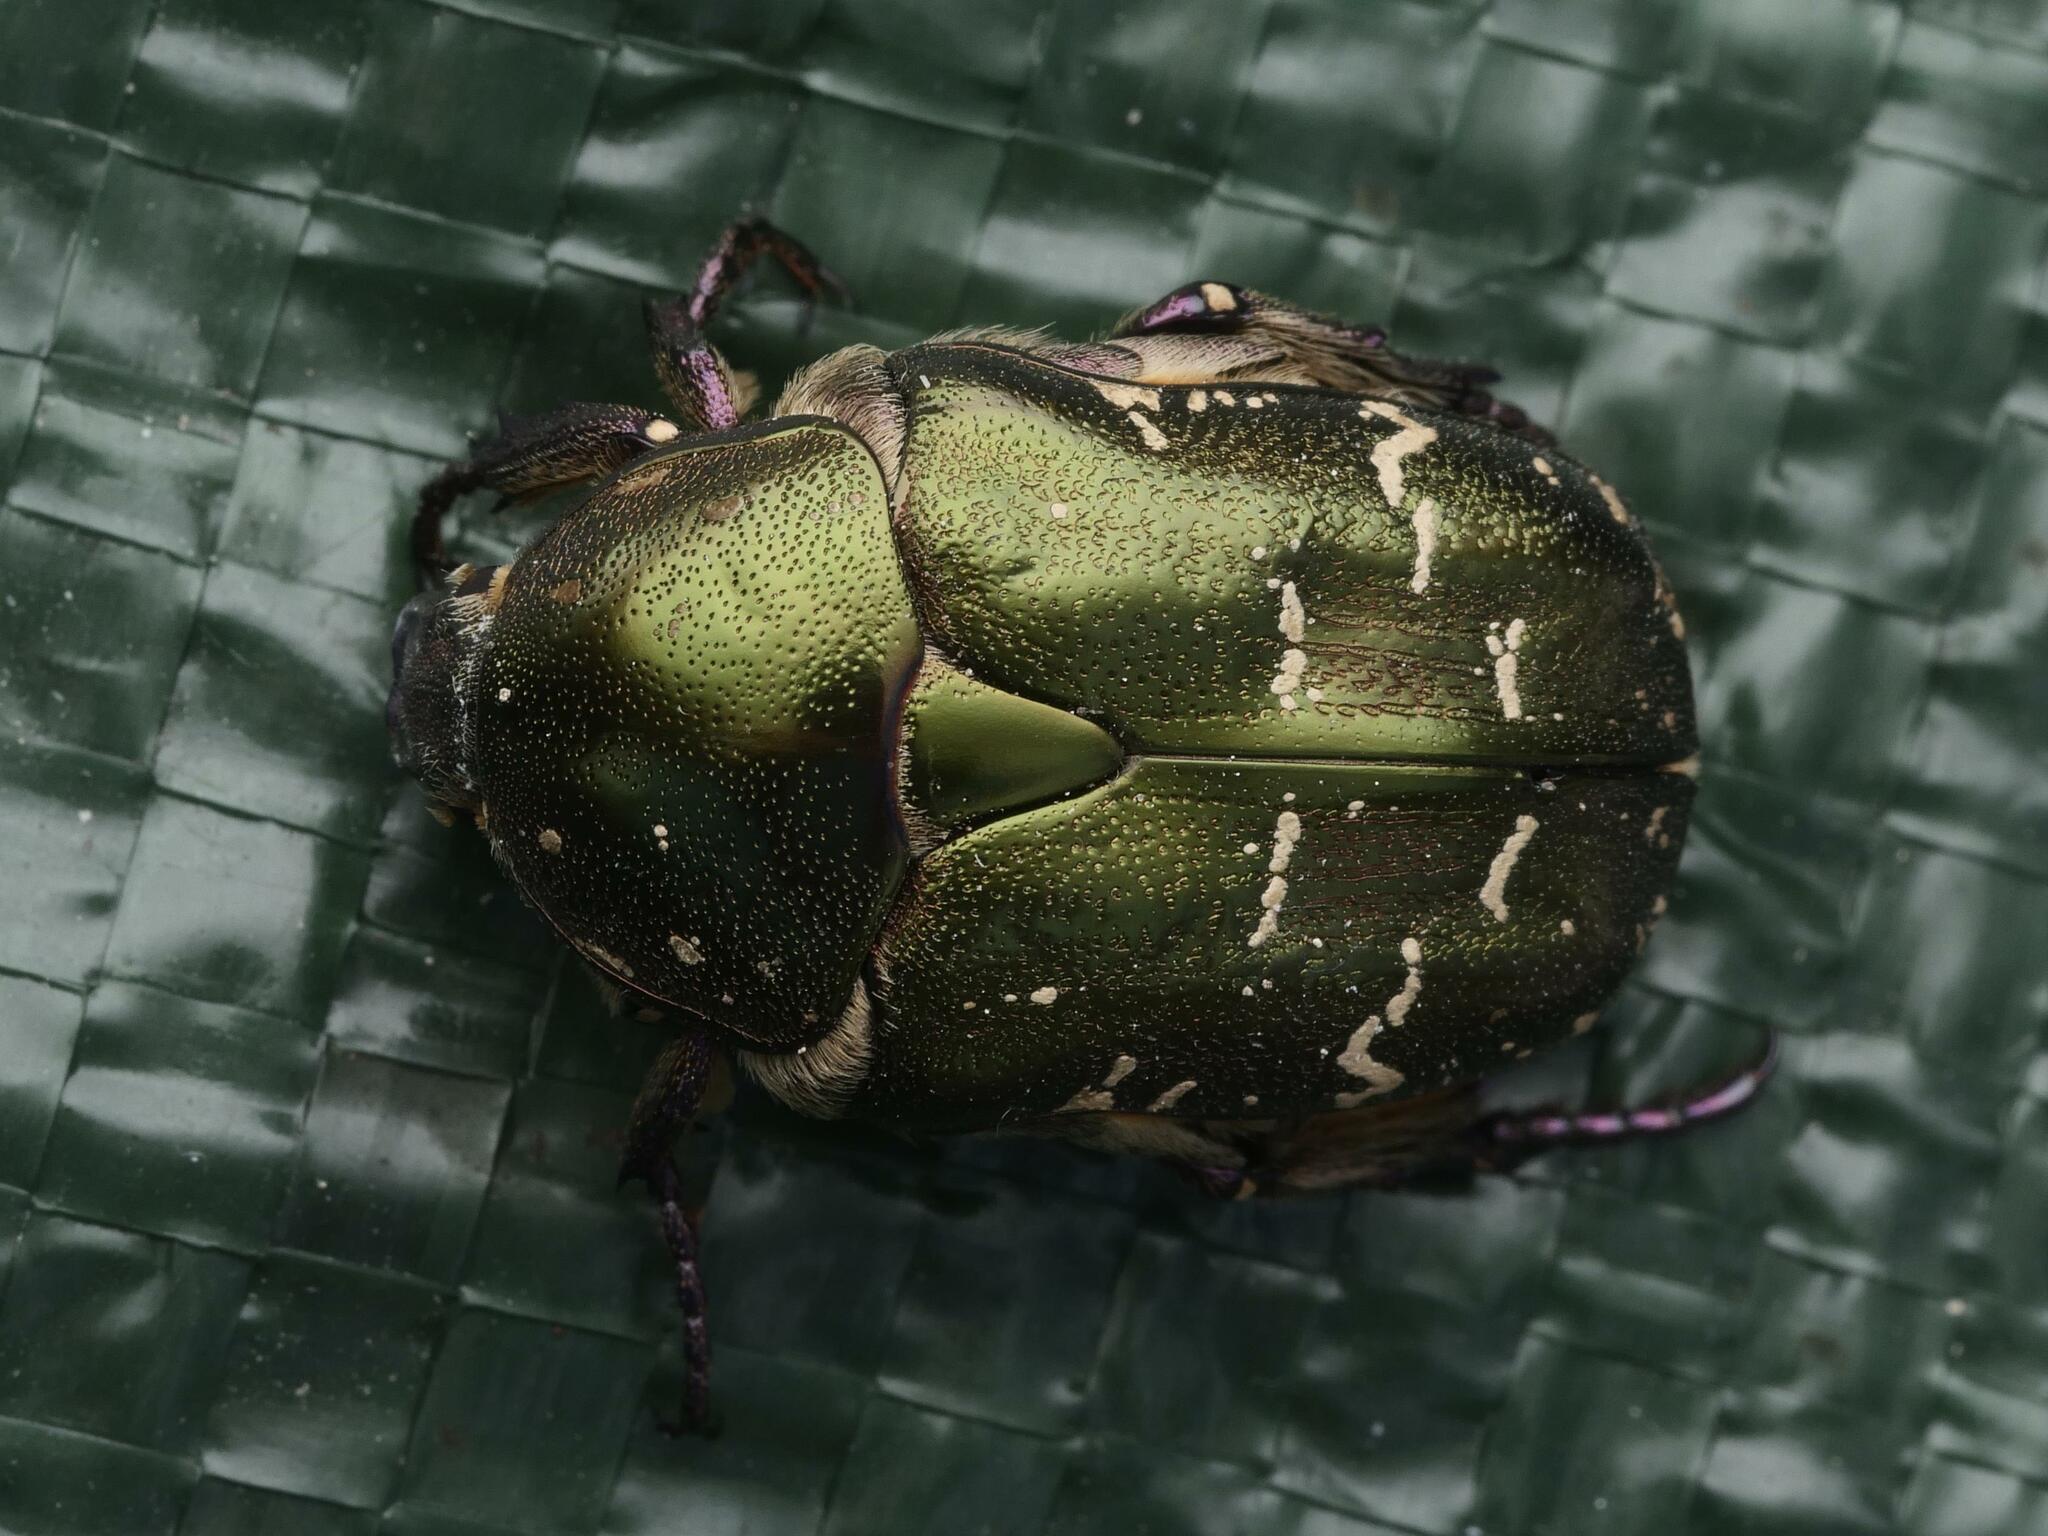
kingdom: Animalia
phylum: Arthropoda
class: Insecta
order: Coleoptera
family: Scarabaeidae
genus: Protaetia
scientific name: Protaetia cuprea
